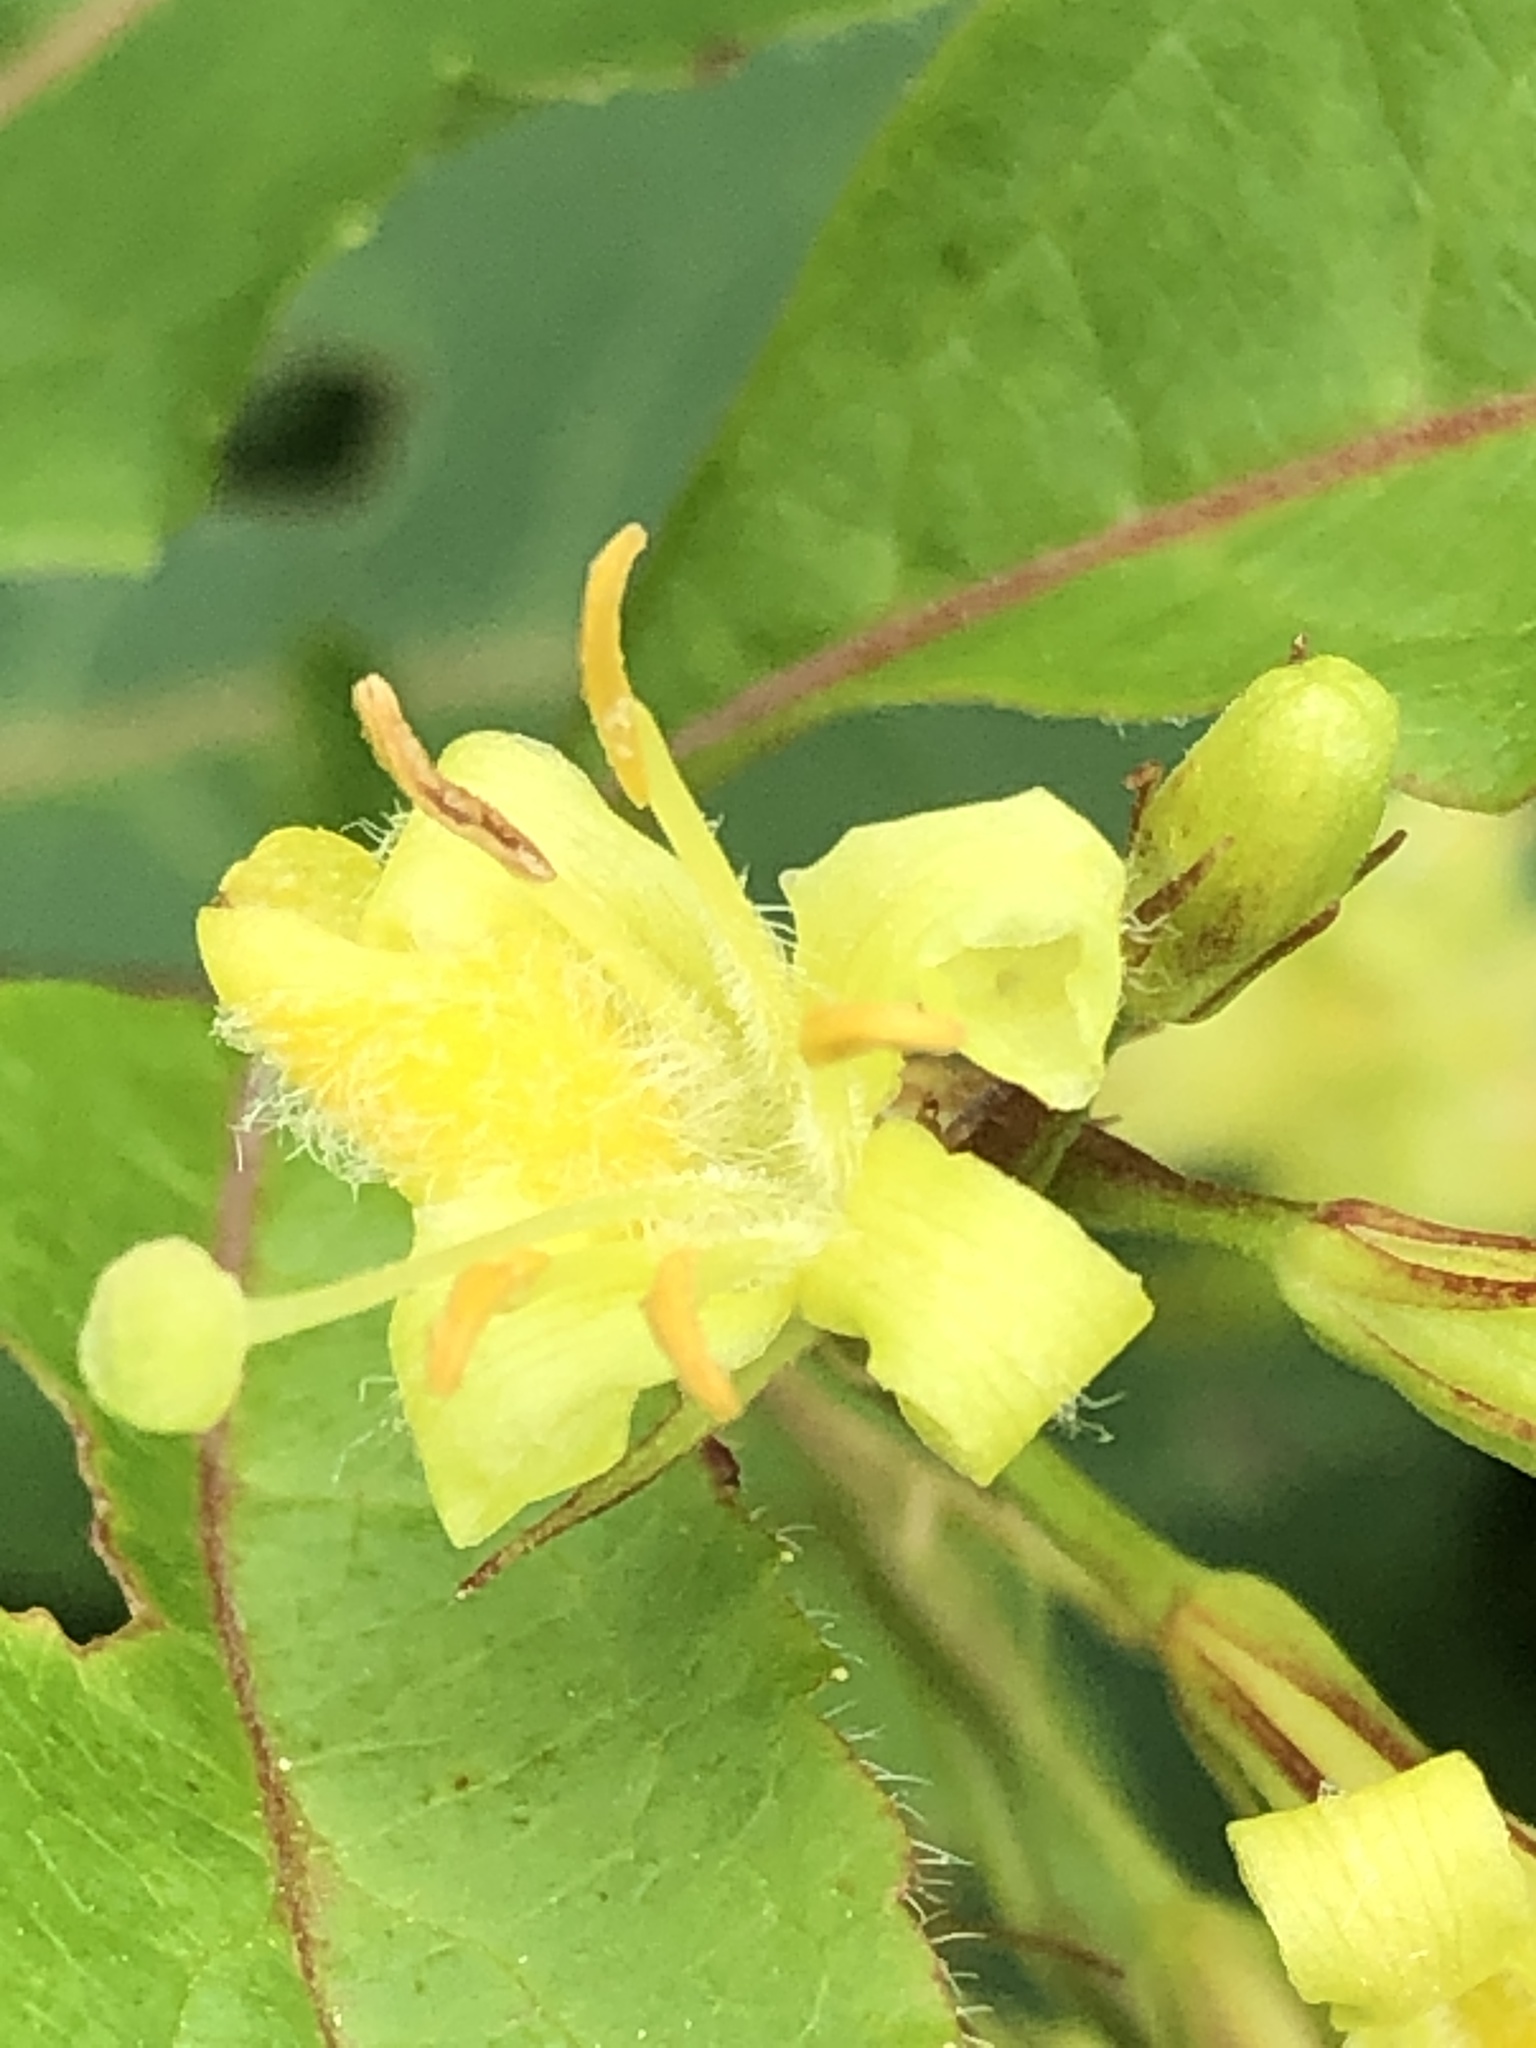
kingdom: Plantae
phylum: Tracheophyta
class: Magnoliopsida
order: Dipsacales
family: Caprifoliaceae
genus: Diervilla
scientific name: Diervilla lonicera
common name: Bush-honeysuckle
